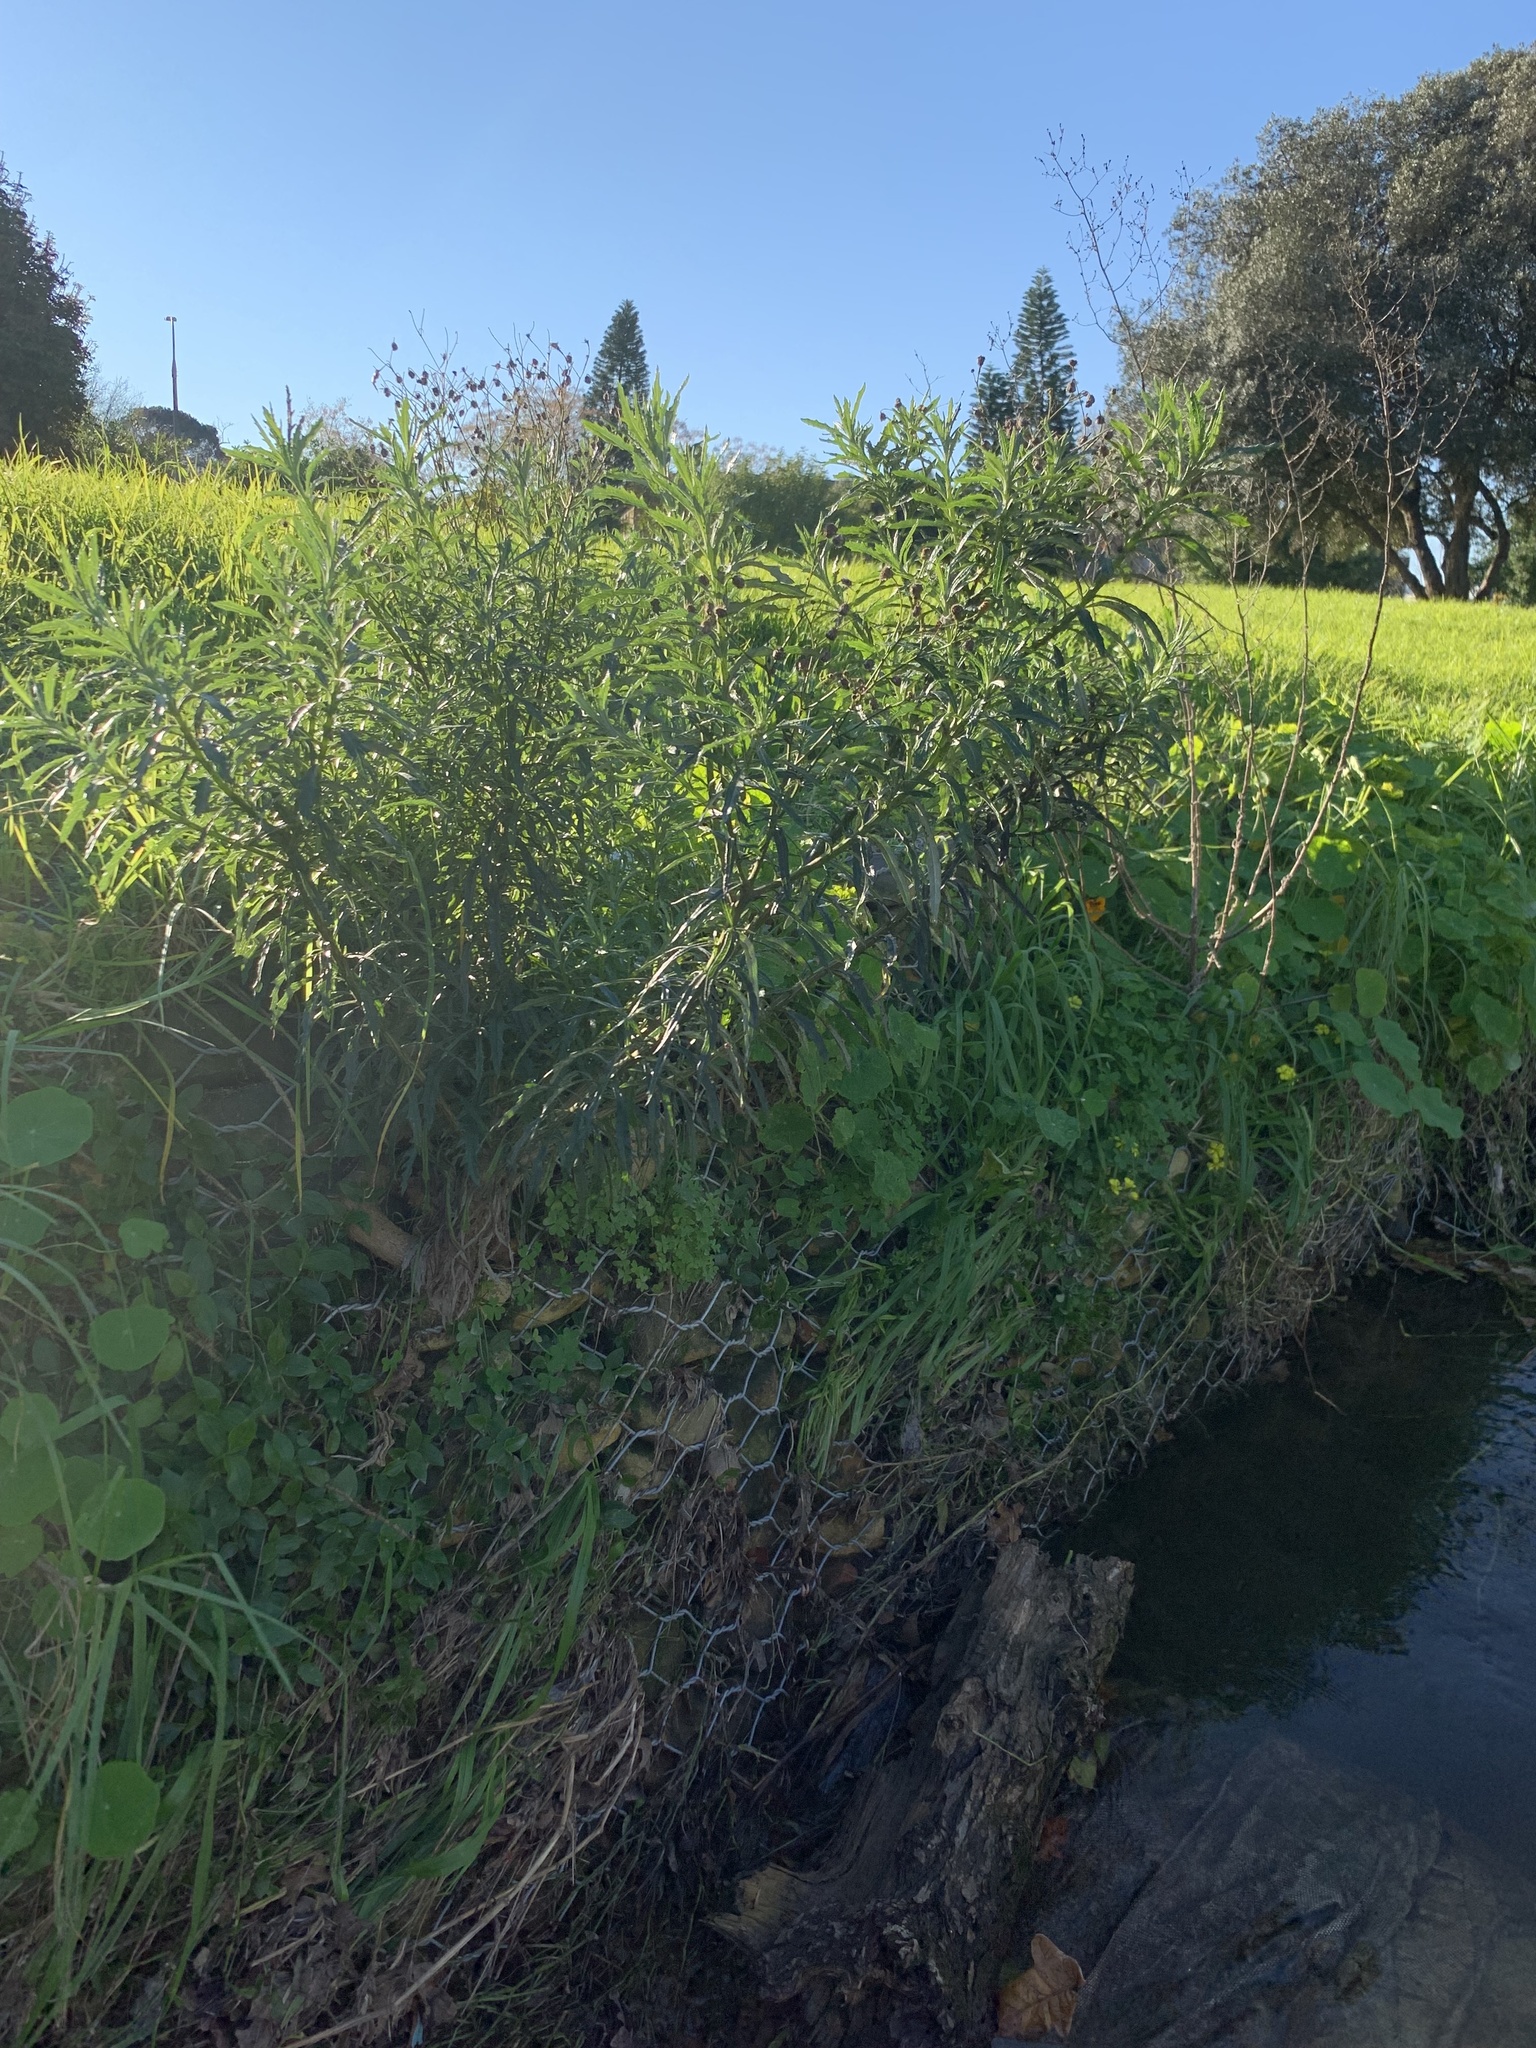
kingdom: Plantae
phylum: Tracheophyta
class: Magnoliopsida
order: Asterales
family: Asteraceae
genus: Senecio
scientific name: Senecio pterophorus
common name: Shoddy ragwort
